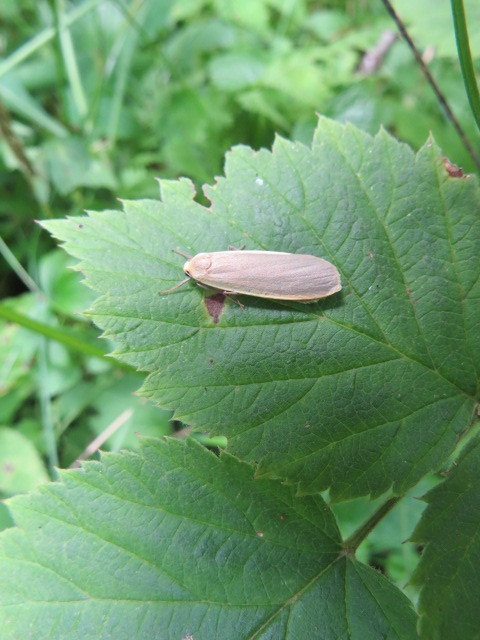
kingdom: Animalia
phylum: Arthropoda
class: Insecta
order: Lepidoptera
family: Erebidae
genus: Collita
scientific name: Collita griseola
